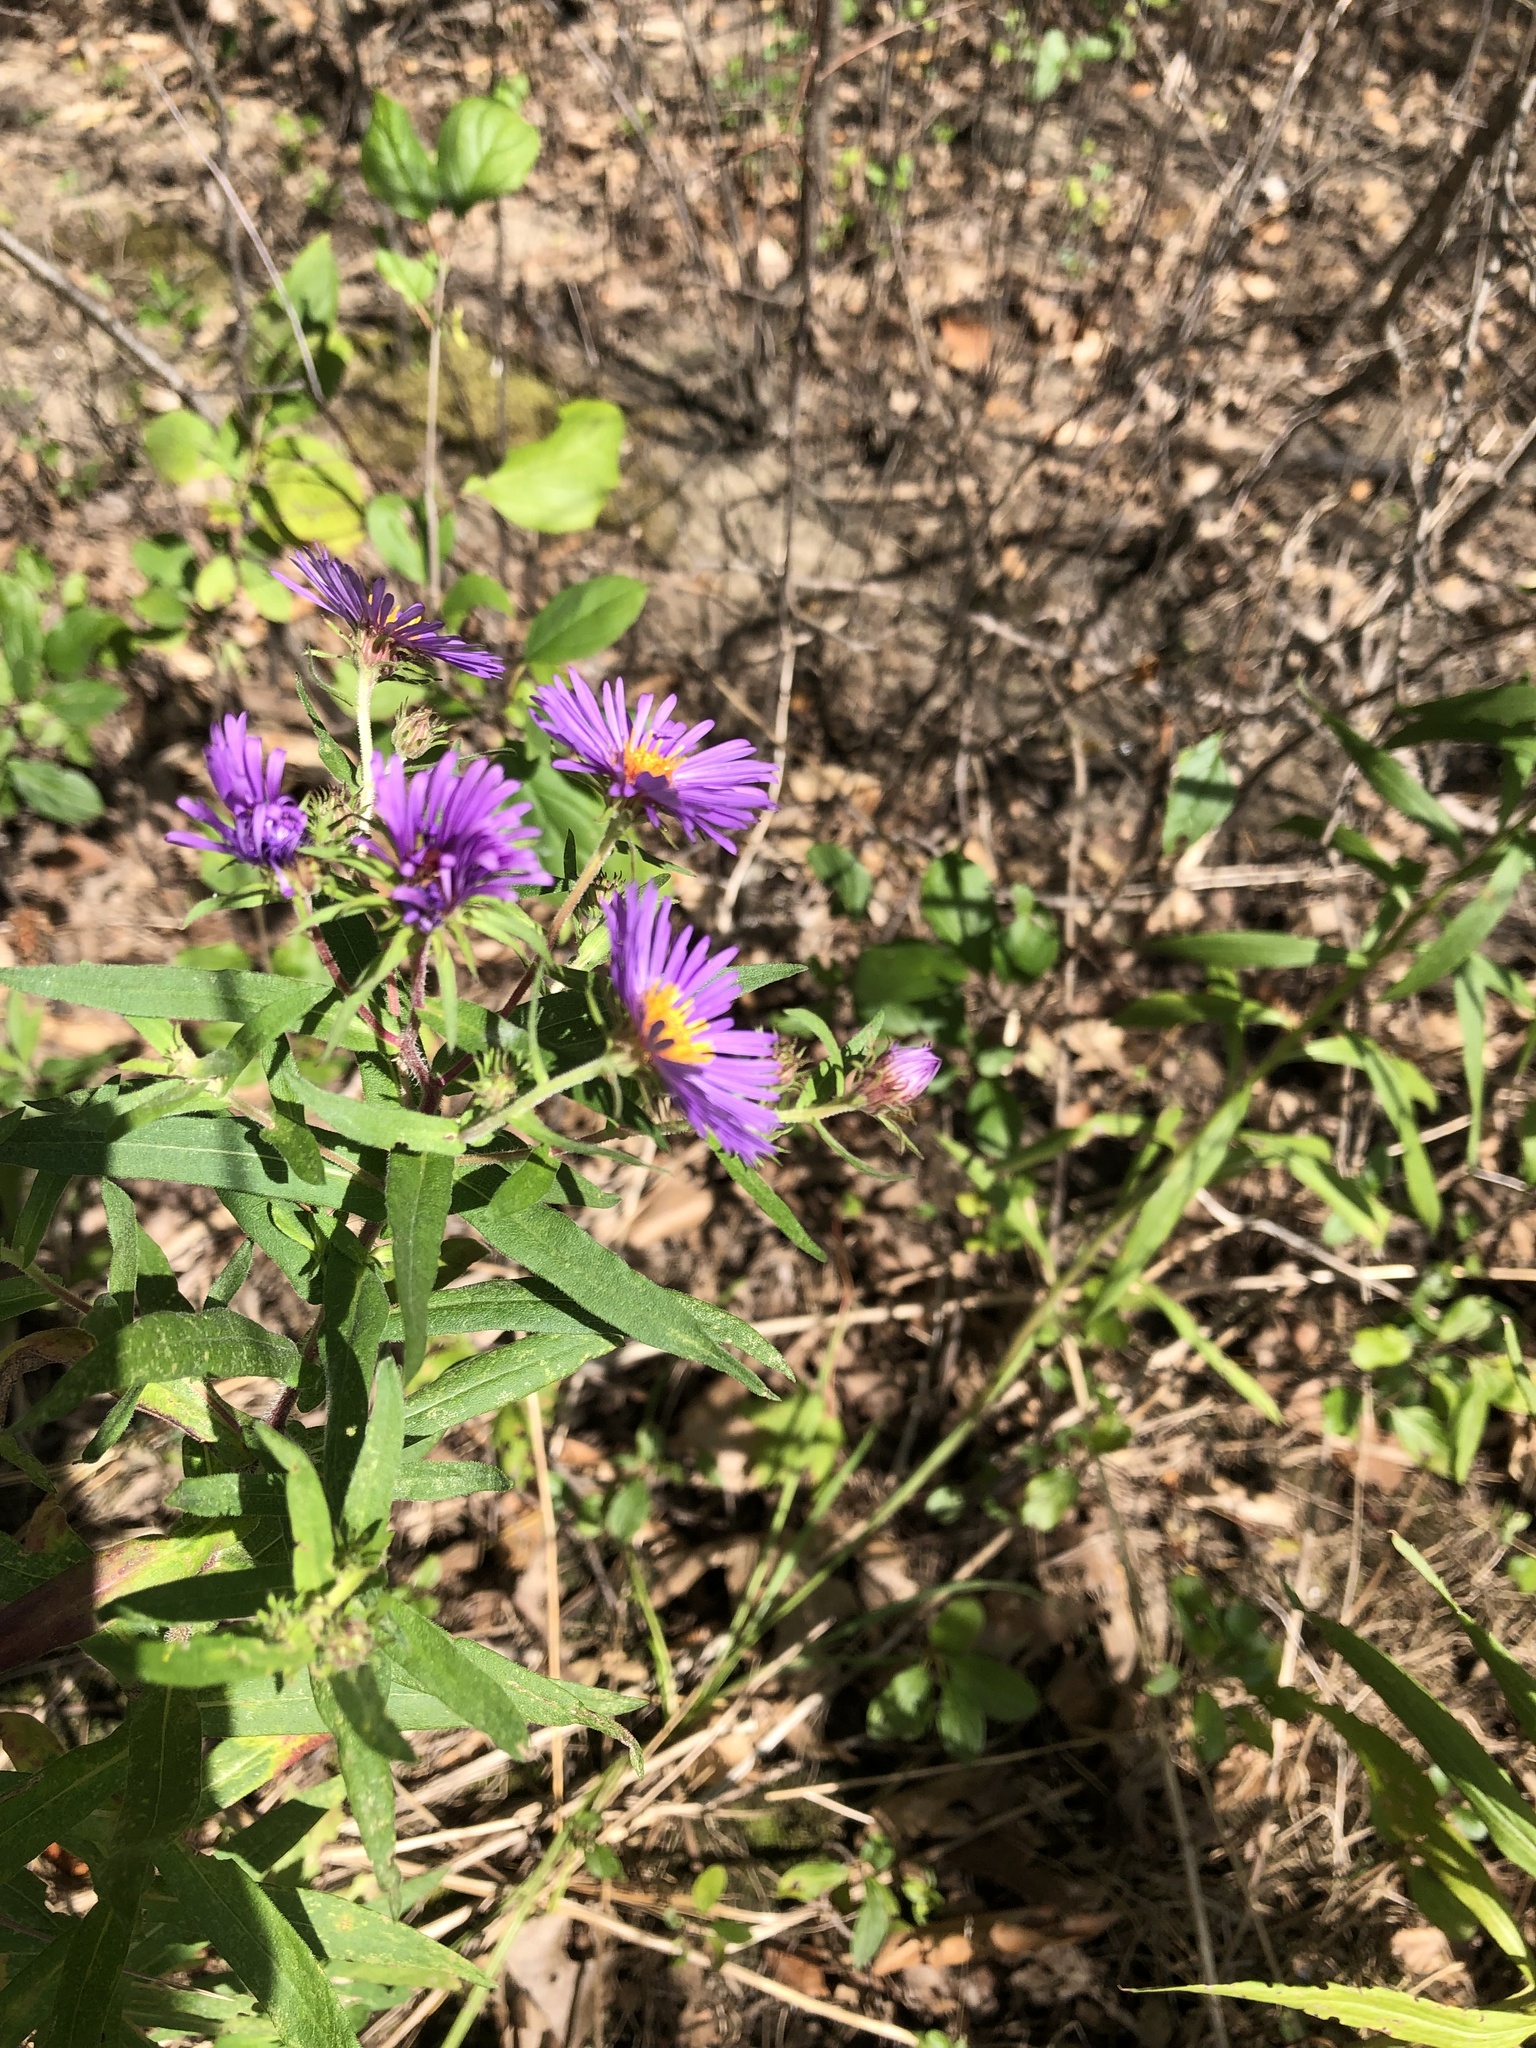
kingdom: Plantae
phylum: Tracheophyta
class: Magnoliopsida
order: Asterales
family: Asteraceae
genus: Symphyotrichum
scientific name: Symphyotrichum novae-angliae
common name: Michaelmas daisy
